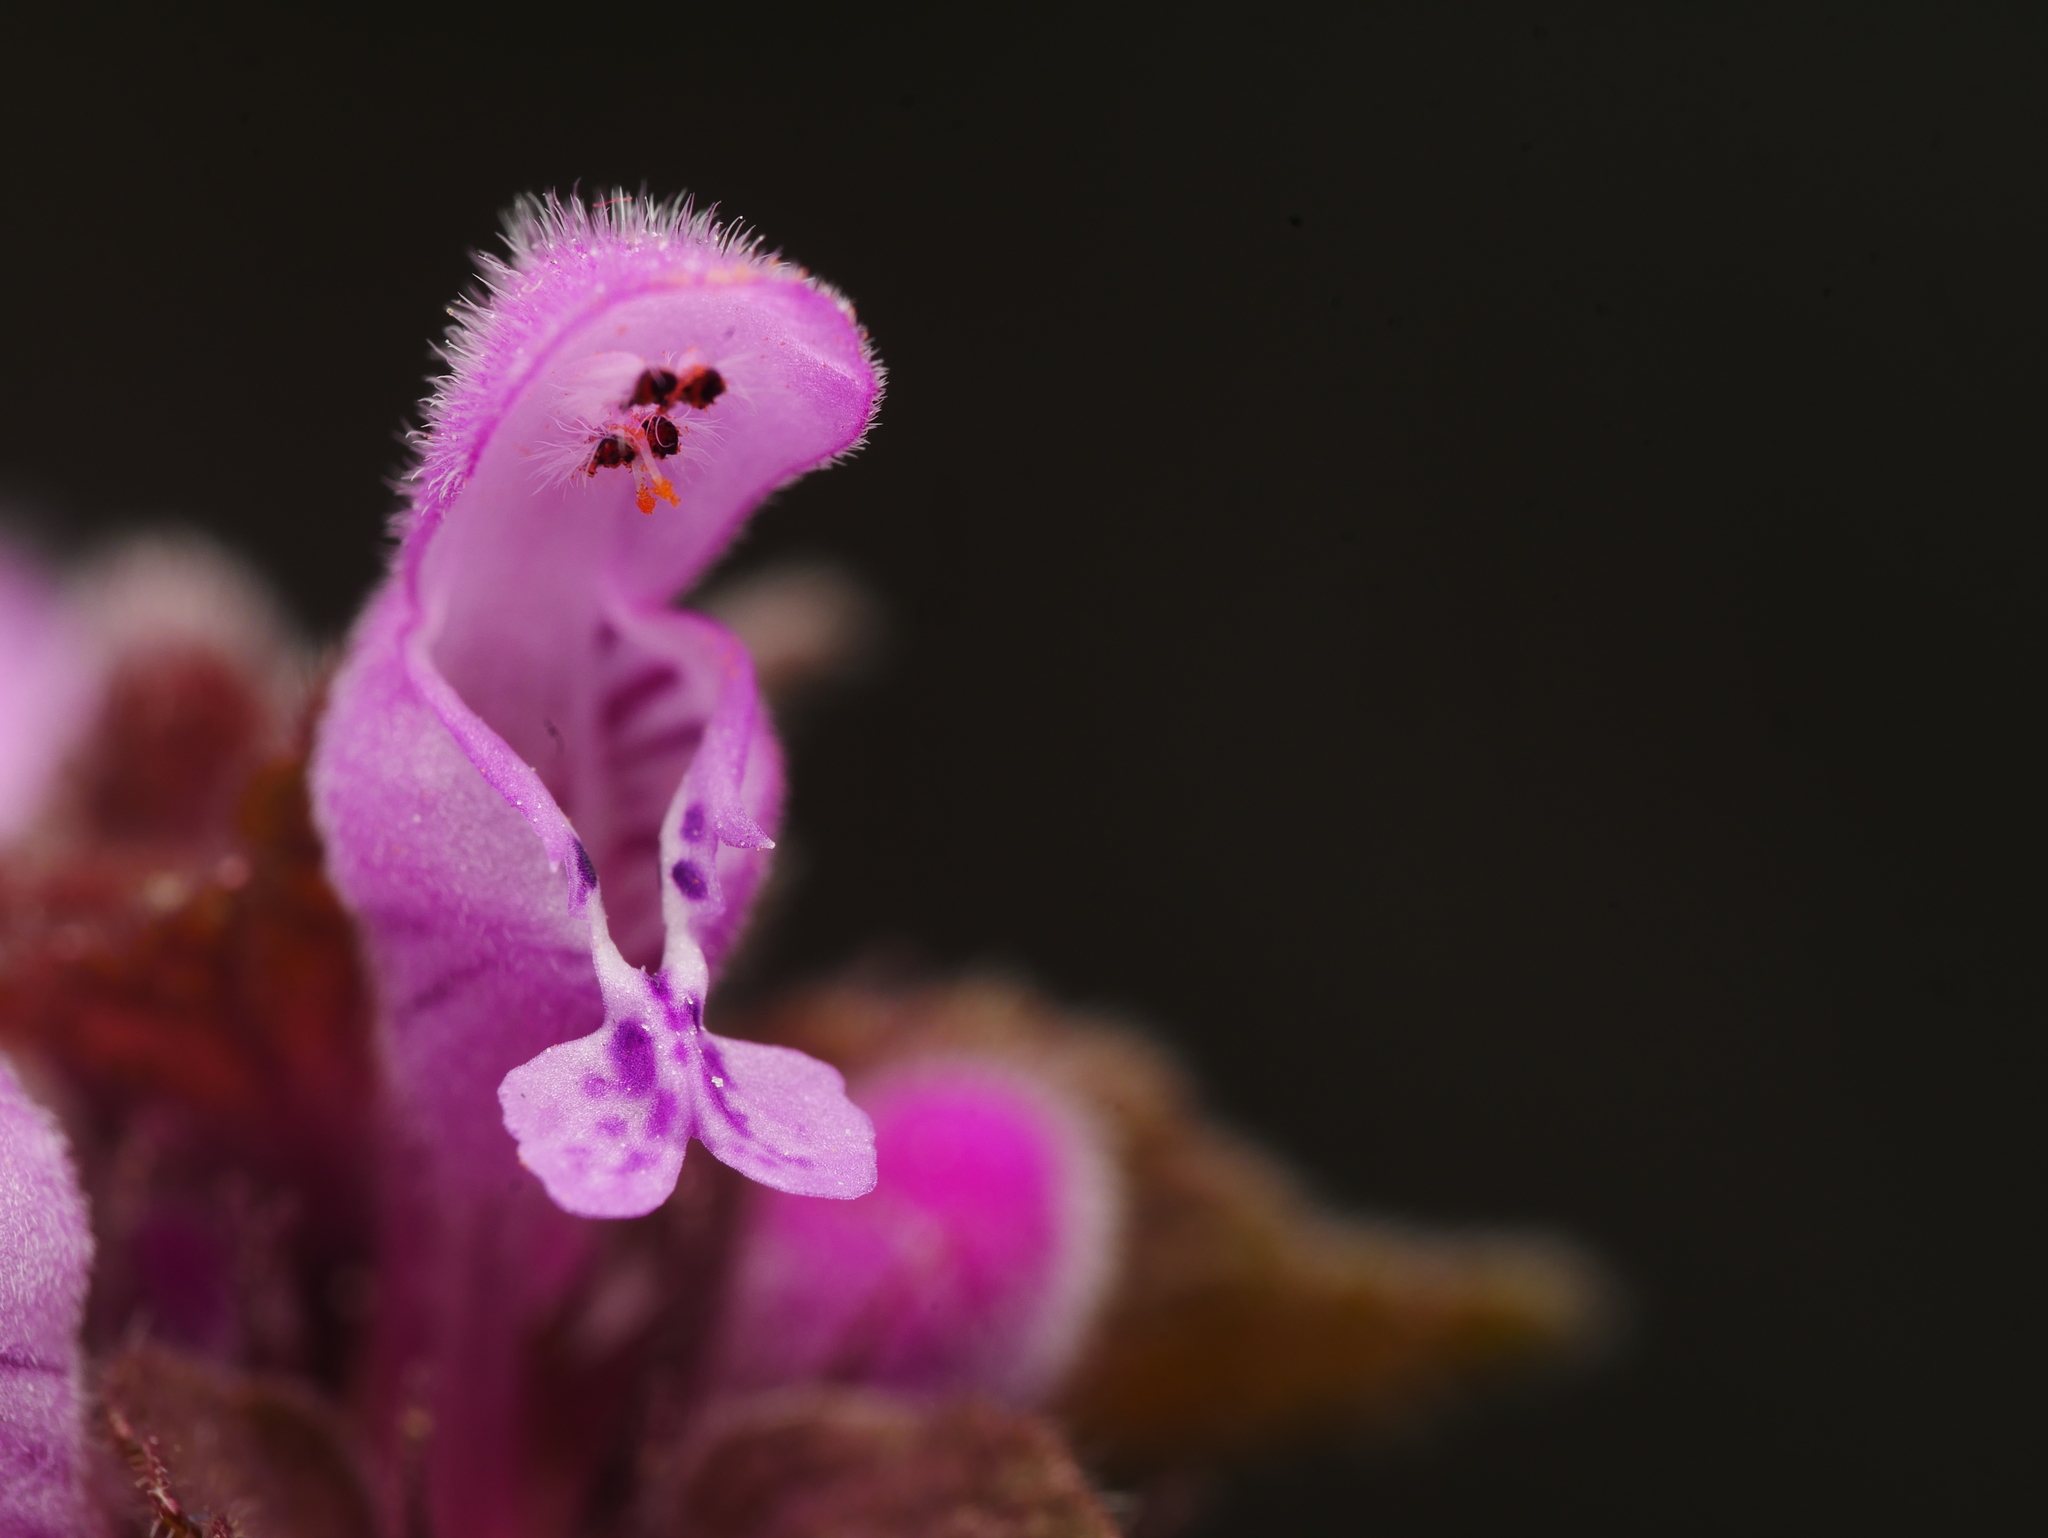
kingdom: Plantae
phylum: Tracheophyta
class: Magnoliopsida
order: Lamiales
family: Lamiaceae
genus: Lamium
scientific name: Lamium purpureum
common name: Red dead-nettle
